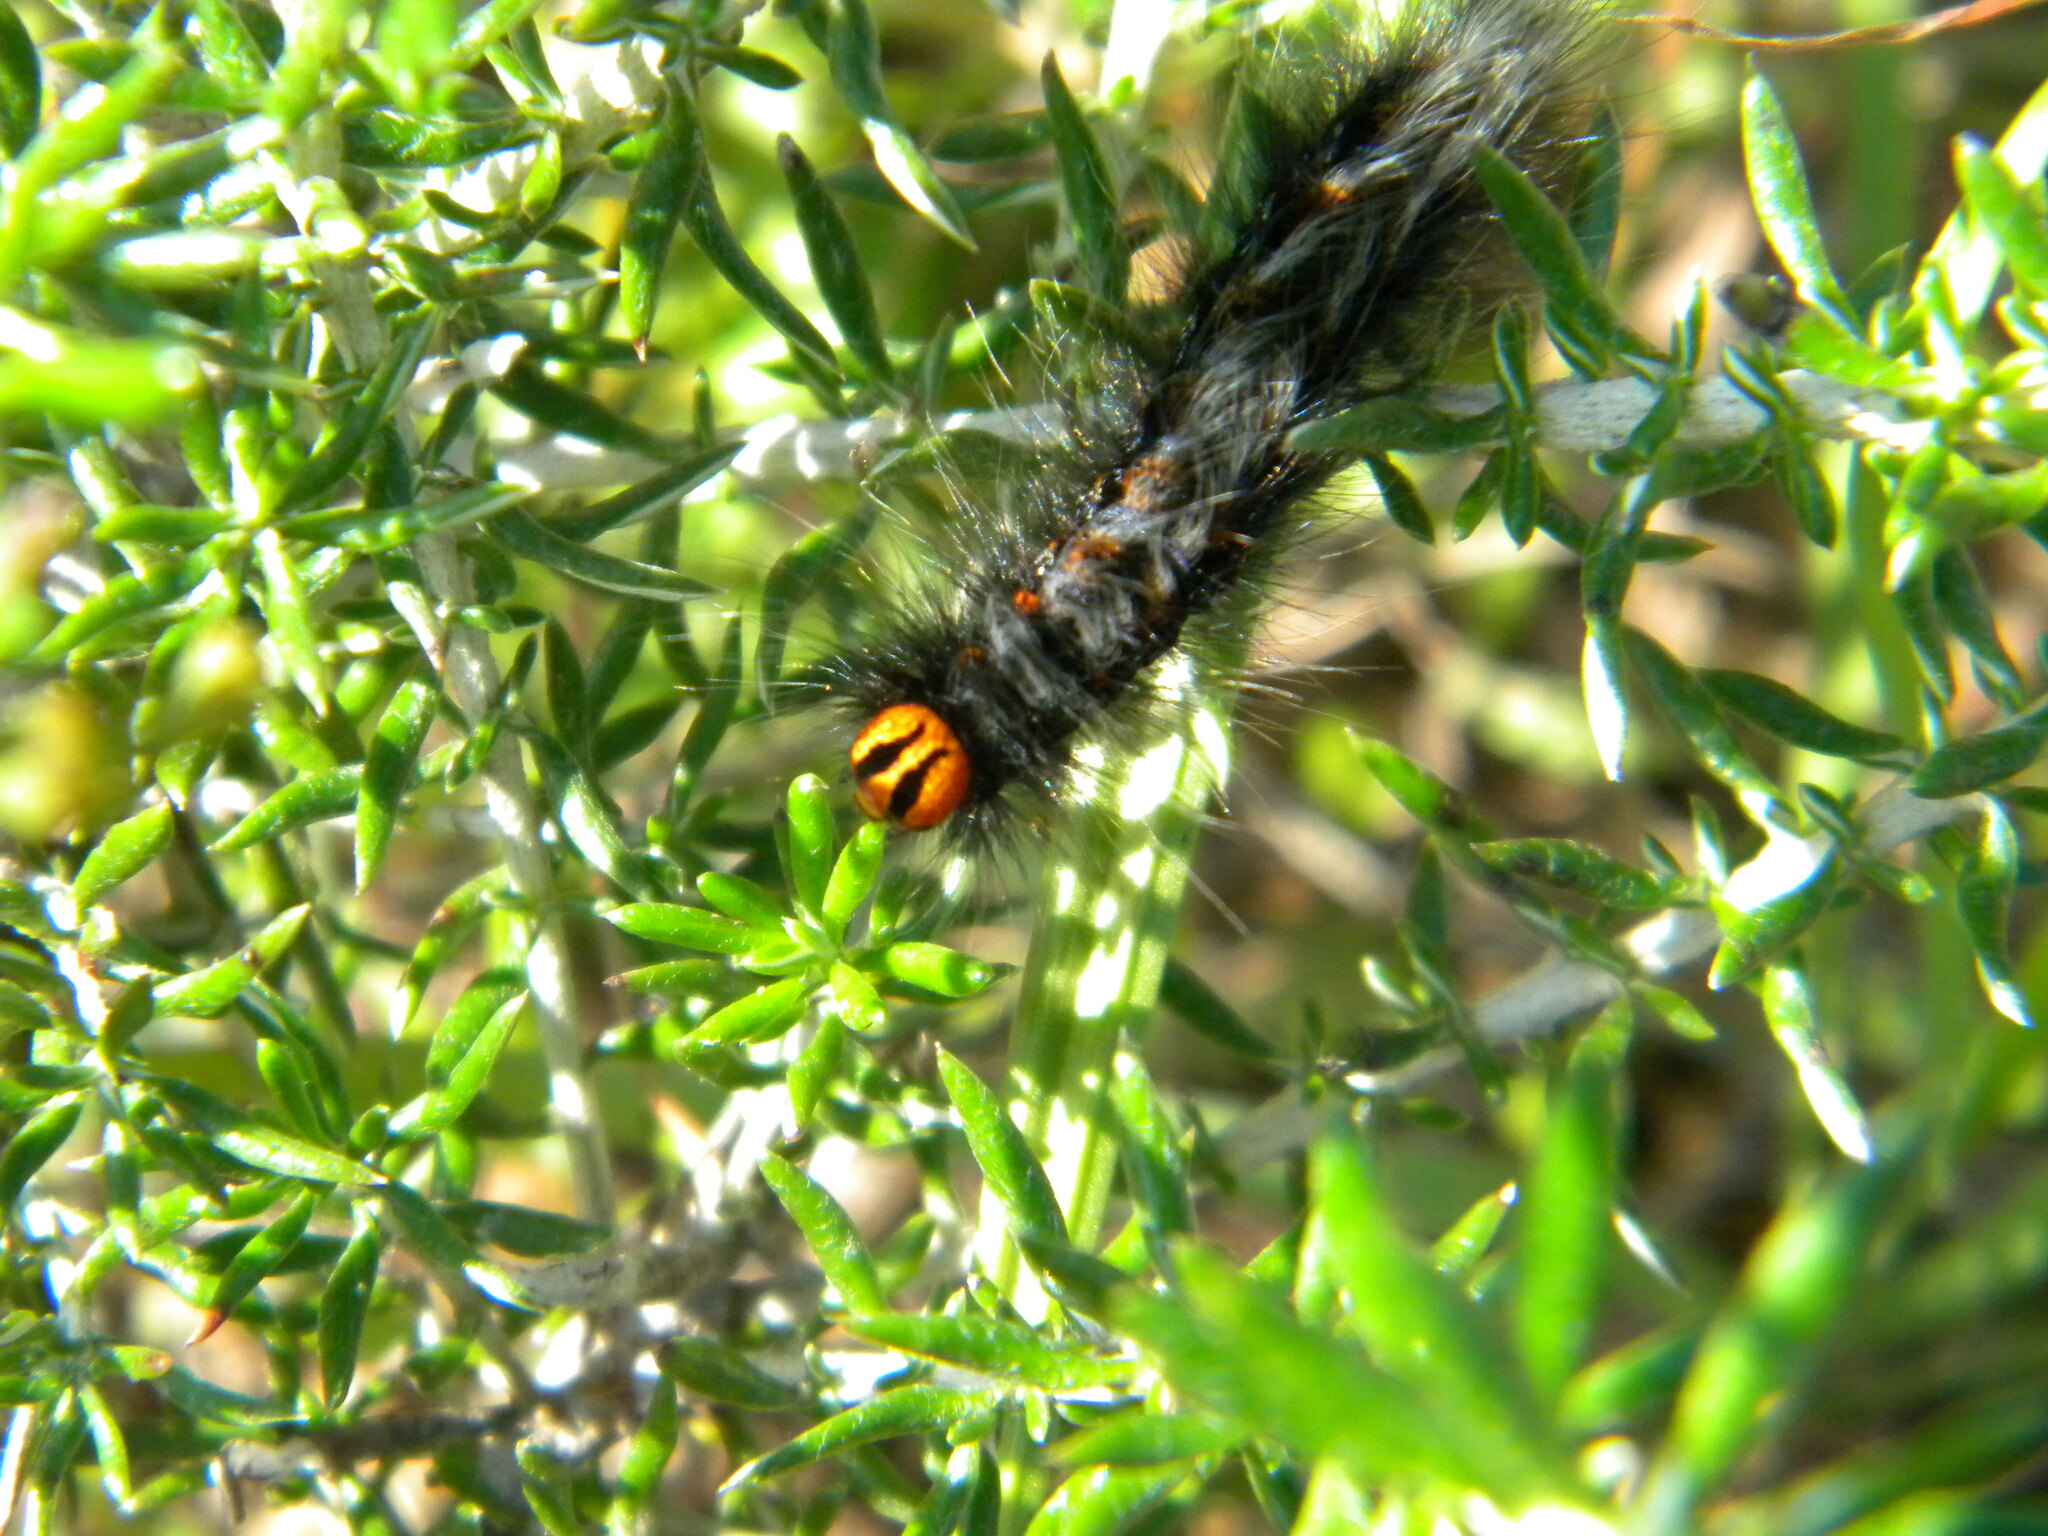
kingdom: Animalia
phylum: Arthropoda
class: Insecta
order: Lepidoptera
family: Lasiocampidae
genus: Mesocelis
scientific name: Mesocelis monticola
